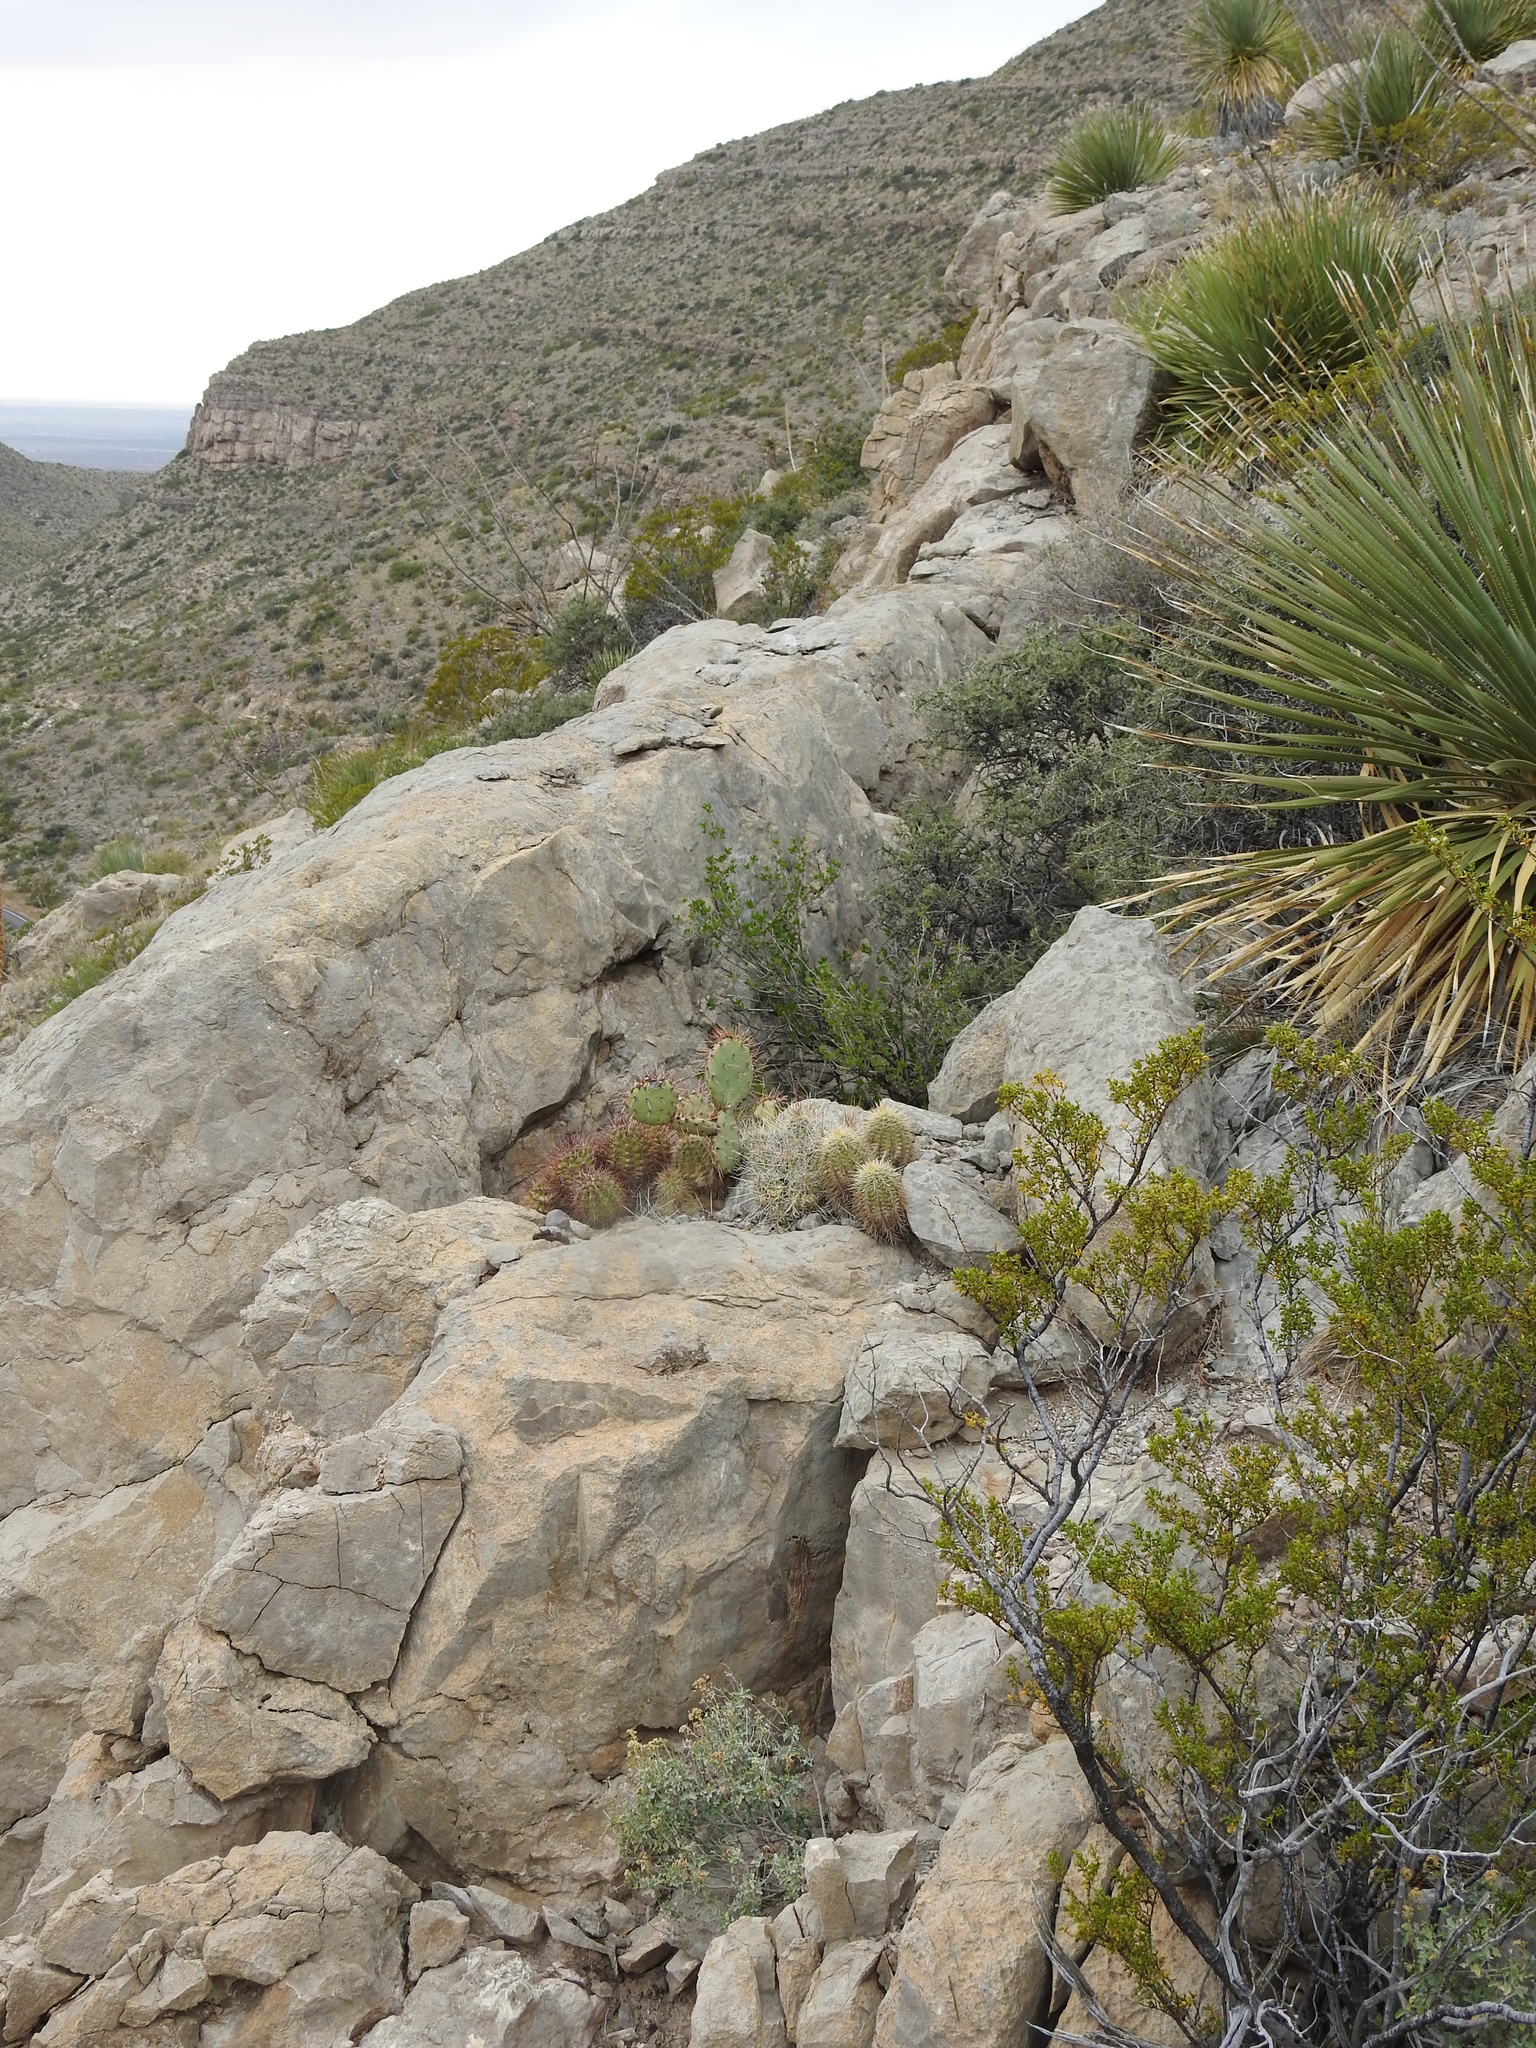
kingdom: Plantae
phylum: Tracheophyta
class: Magnoliopsida
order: Caryophyllales
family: Cactaceae
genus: Echinocereus
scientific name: Echinocereus coccineus
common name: Scarlet hedgehog cactus
